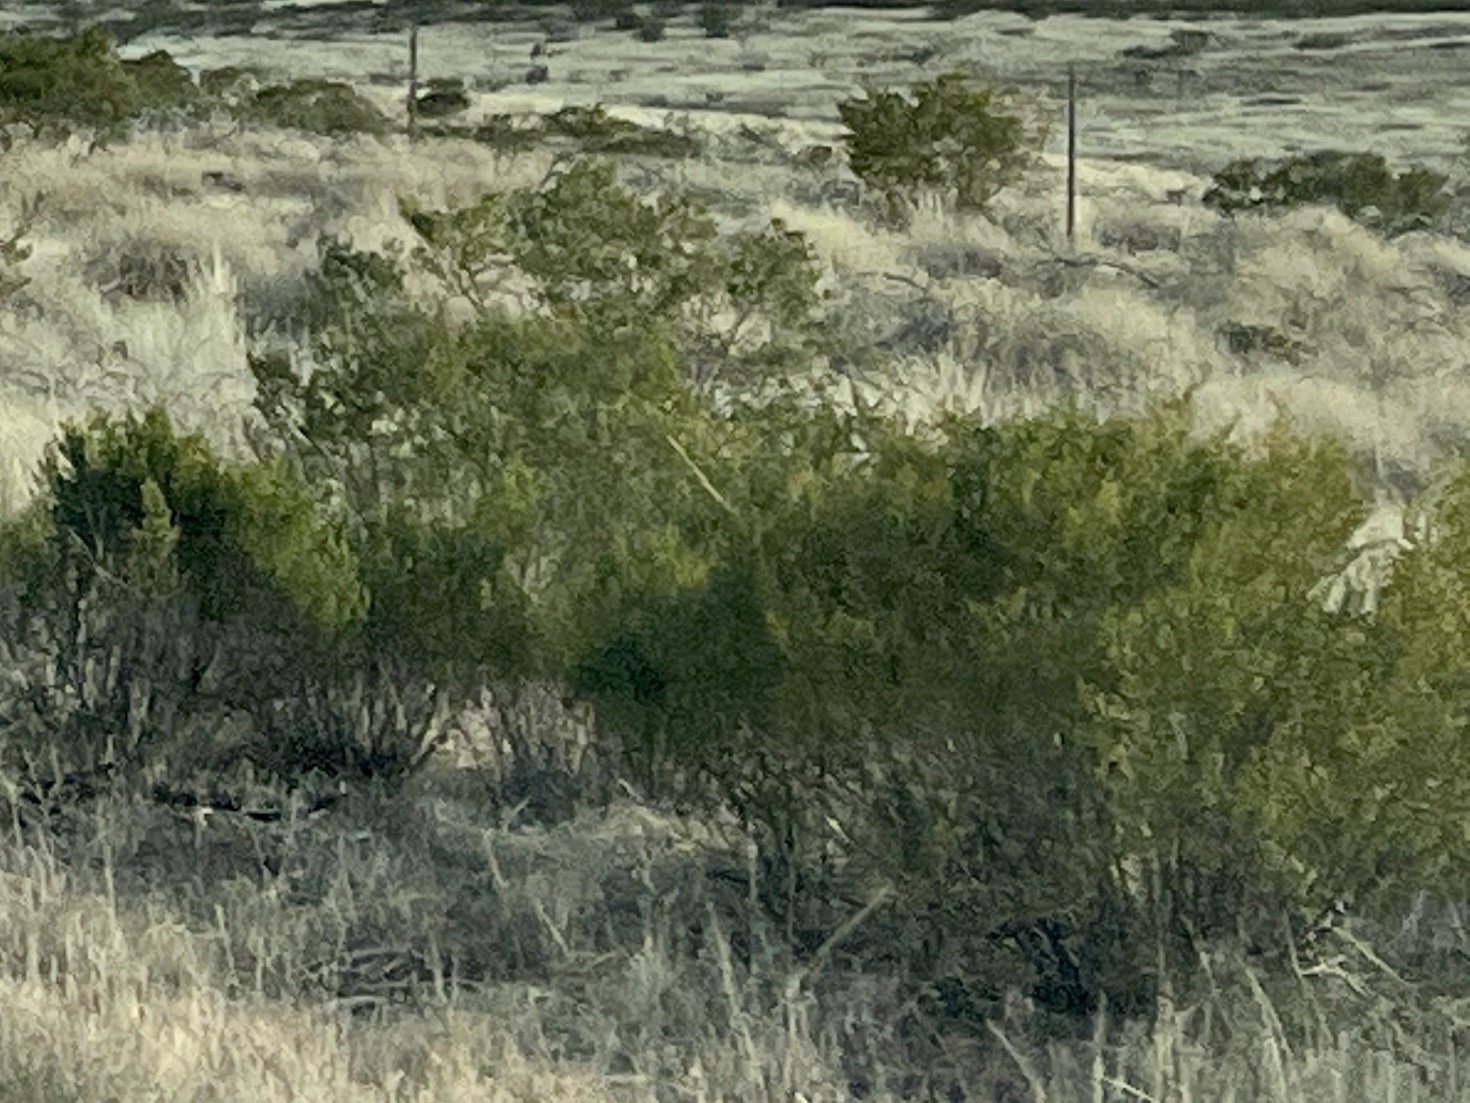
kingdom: Plantae
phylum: Tracheophyta
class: Magnoliopsida
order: Zygophyllales
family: Zygophyllaceae
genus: Larrea
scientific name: Larrea tridentata
